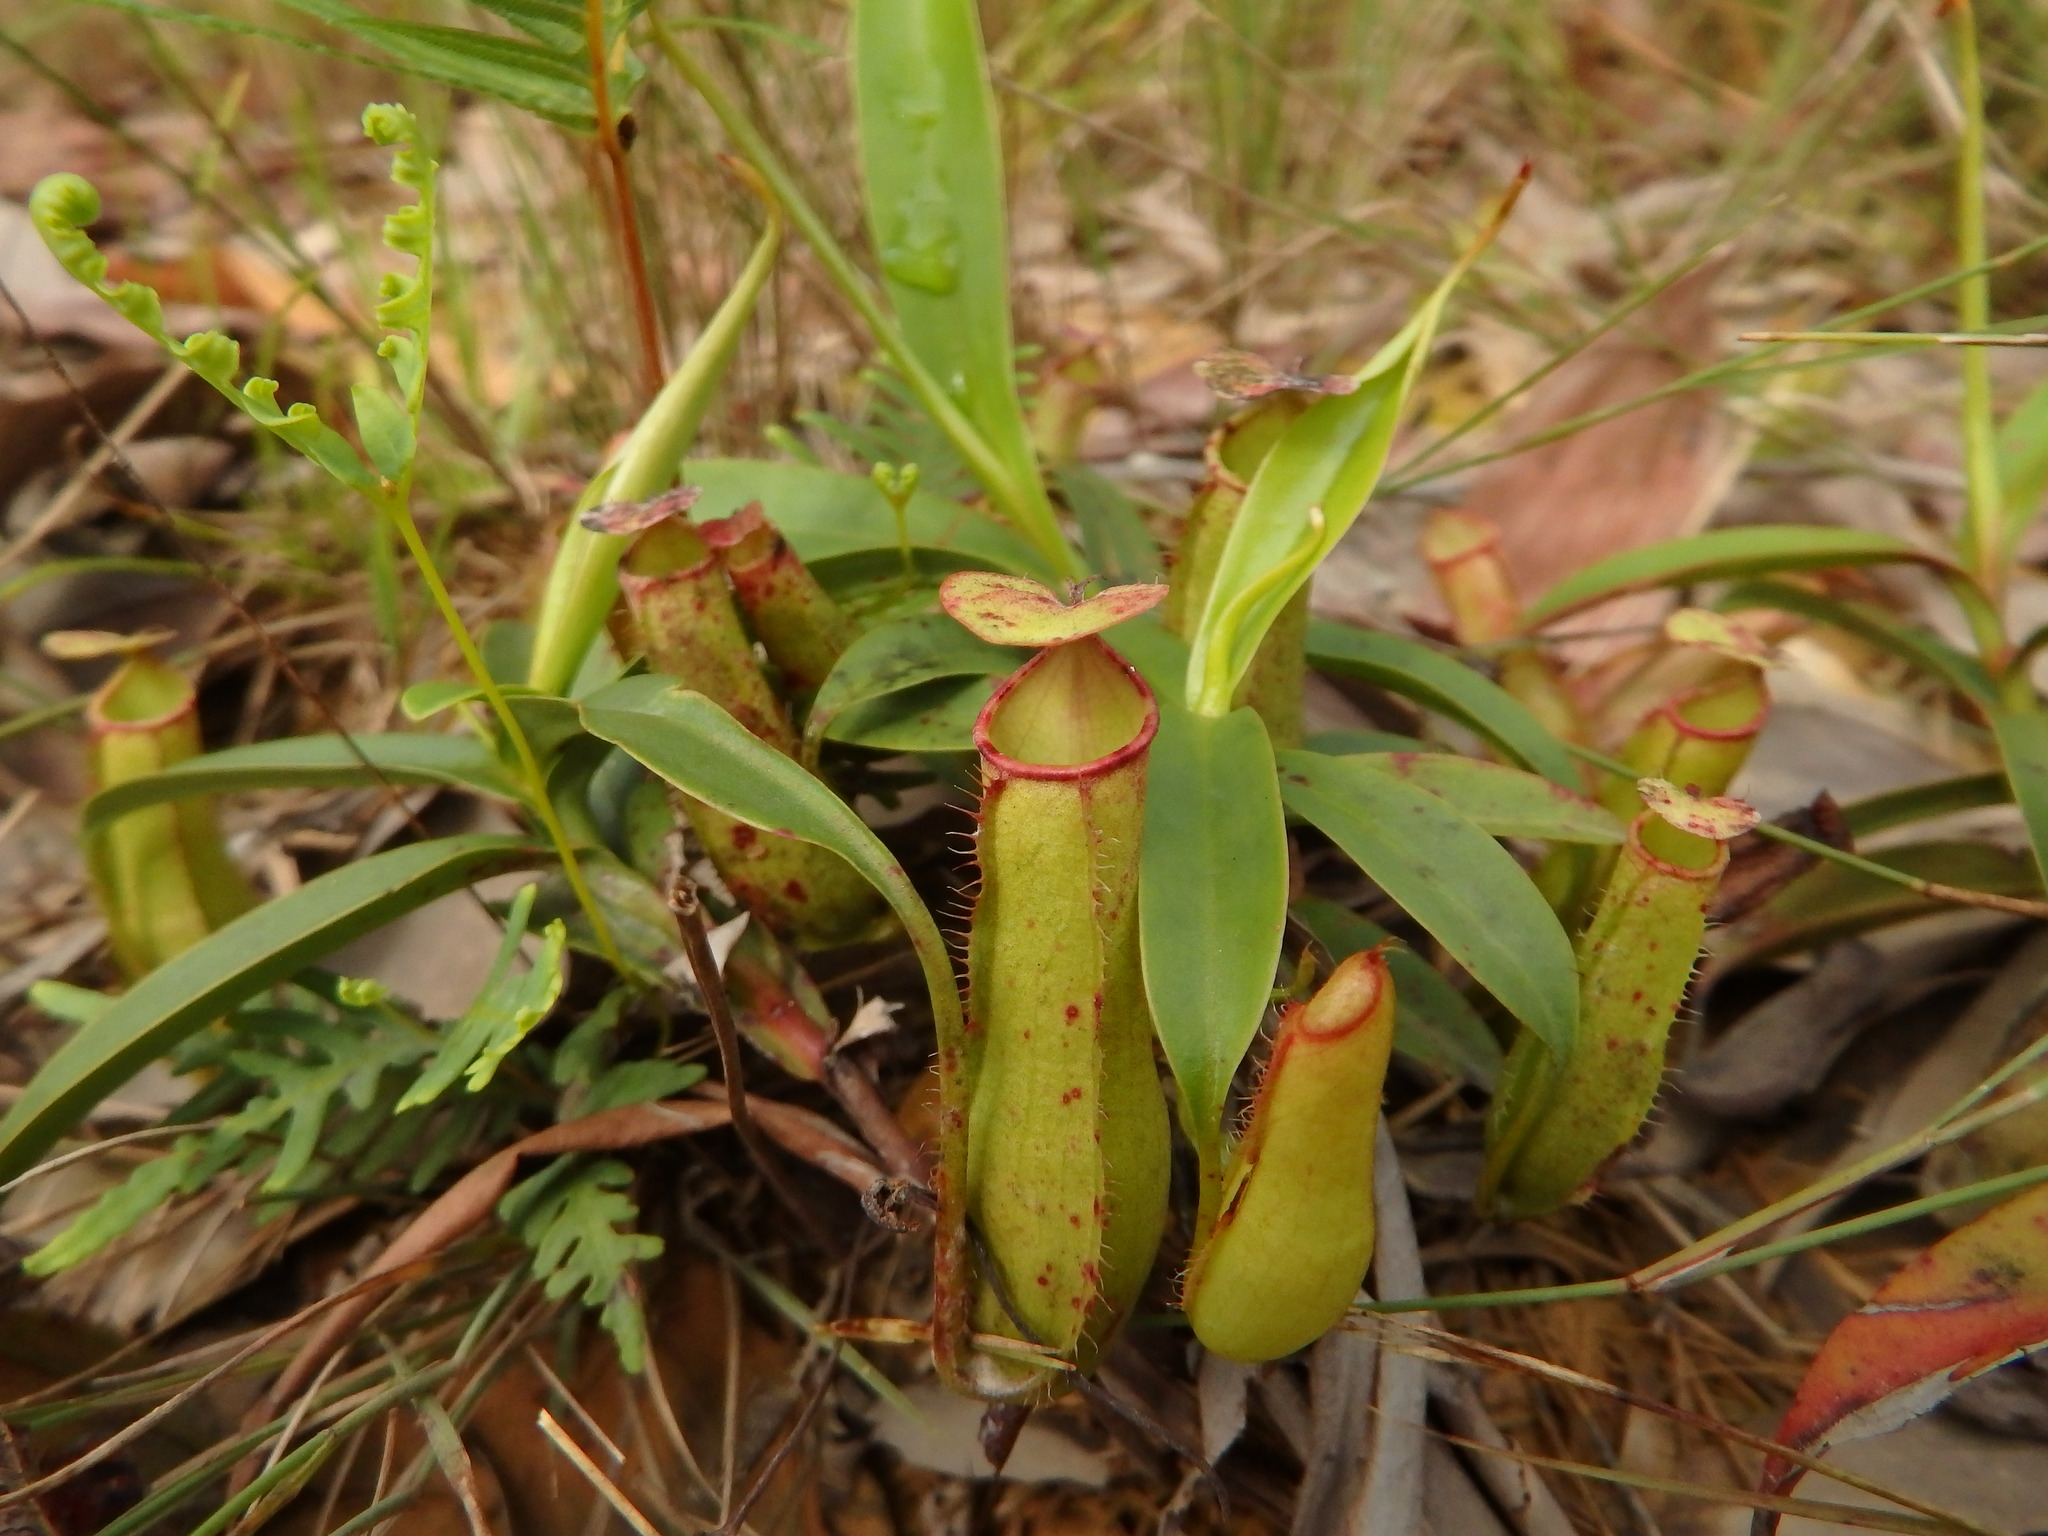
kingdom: Plantae
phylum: Tracheophyta
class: Magnoliopsida
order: Caryophyllales
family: Nepenthaceae
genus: Nepenthes
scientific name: Nepenthes gracilis
